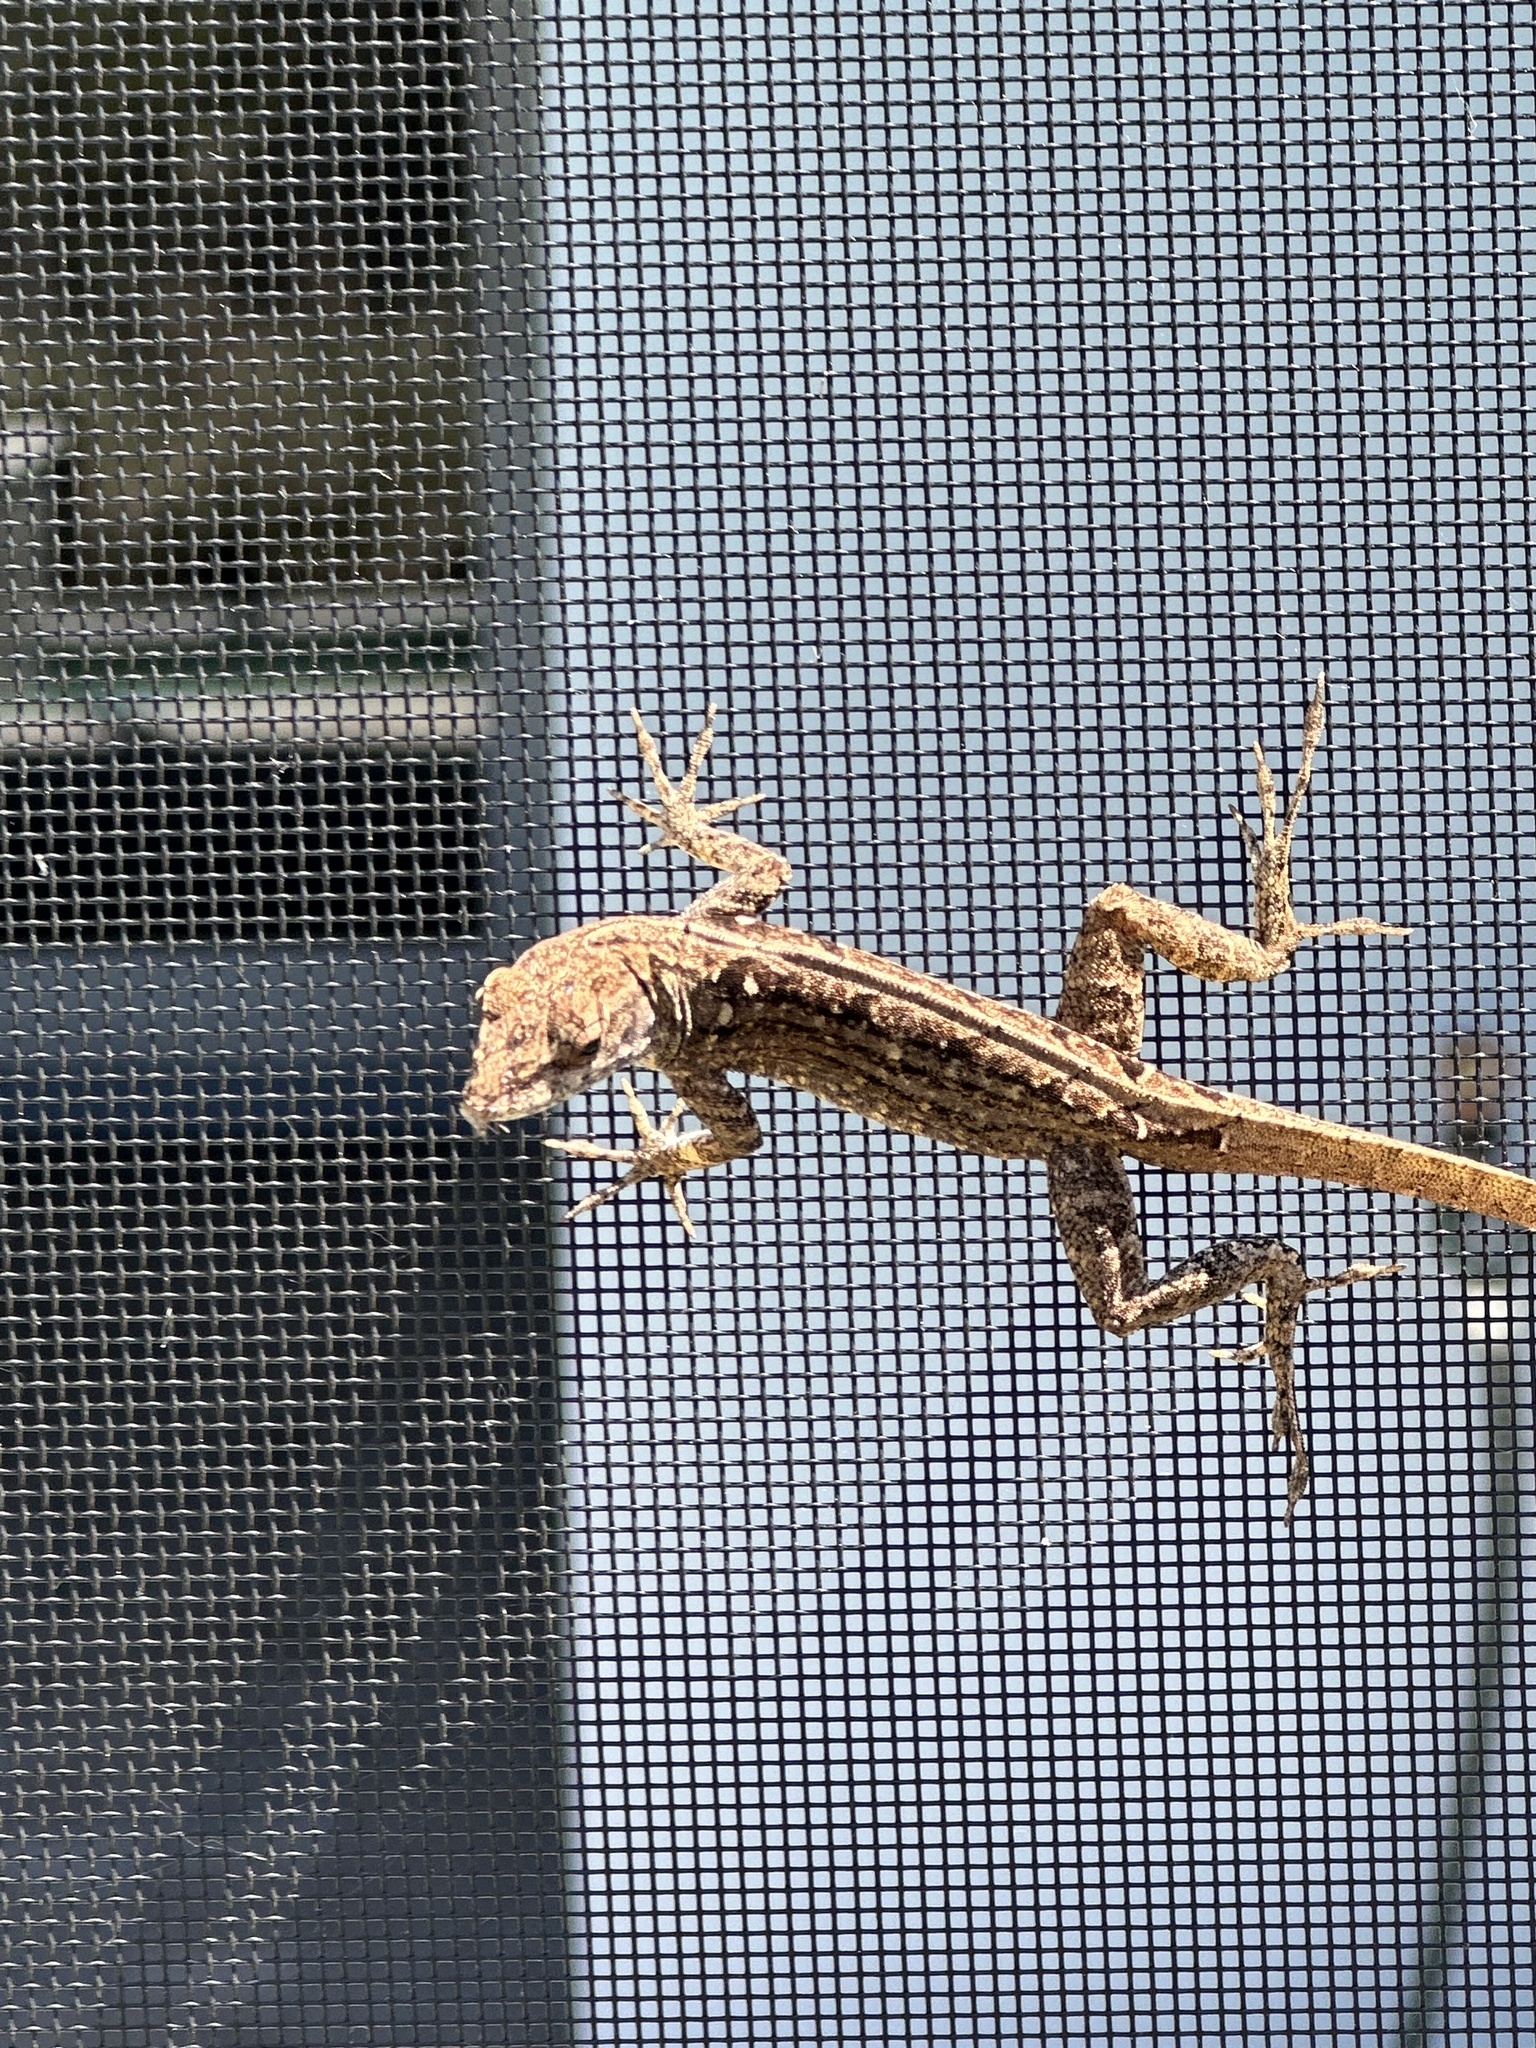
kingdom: Animalia
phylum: Chordata
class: Squamata
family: Dactyloidae
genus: Anolis
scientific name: Anolis sagrei
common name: Brown anole
